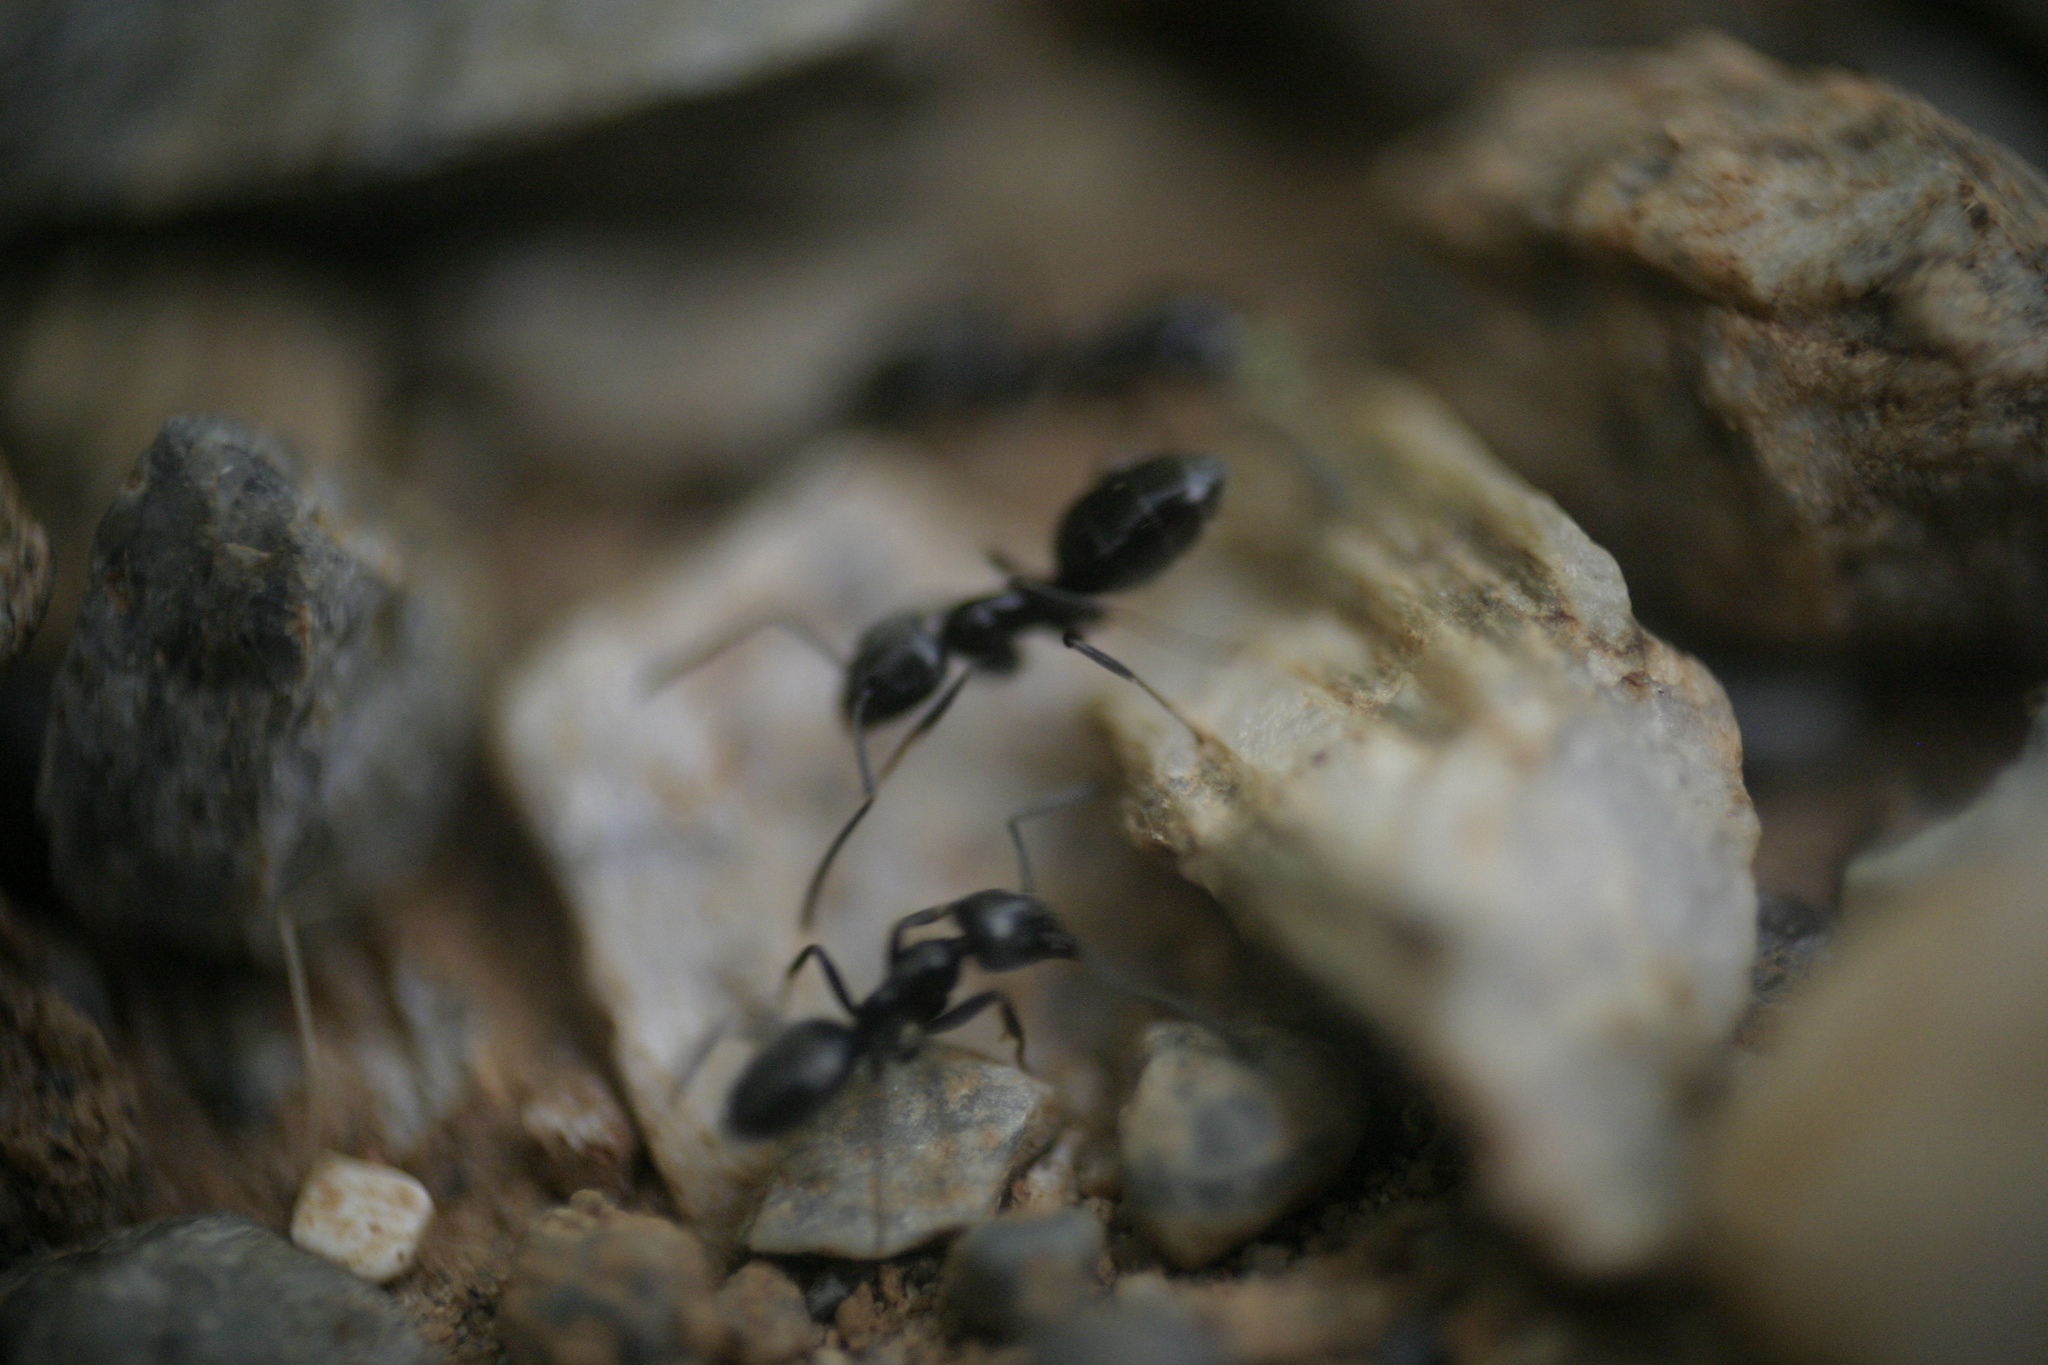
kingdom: Animalia
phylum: Arthropoda
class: Insecta
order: Hymenoptera
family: Formicidae
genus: Tapinoma
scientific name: Tapinoma
